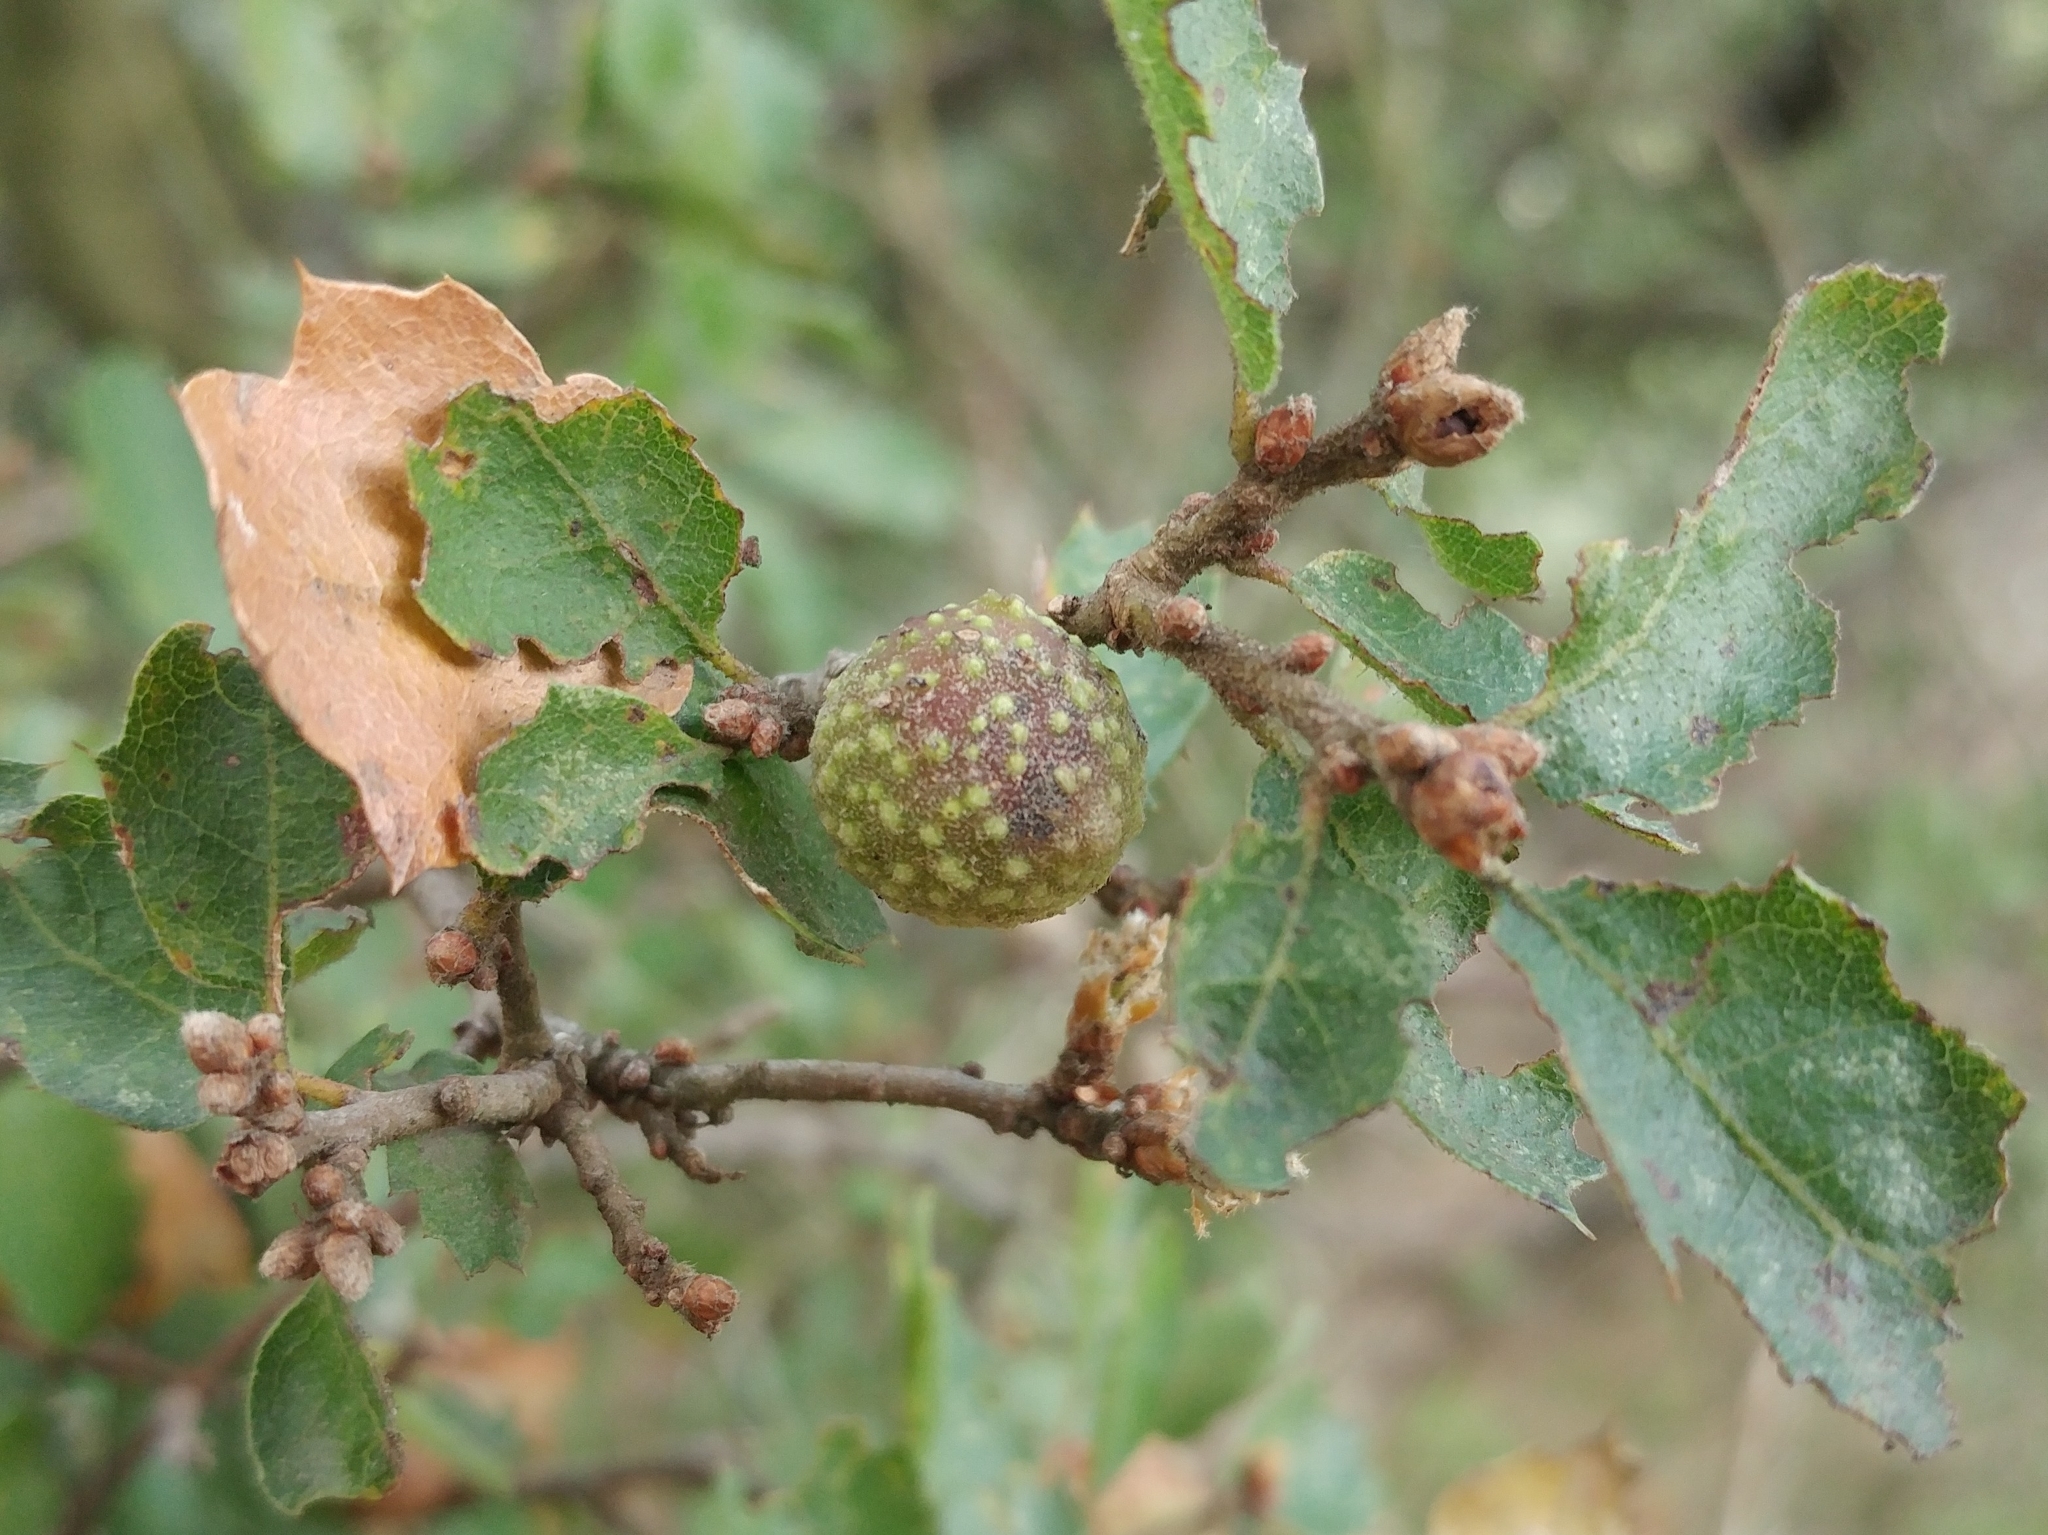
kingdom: Animalia
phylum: Arthropoda
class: Insecta
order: Hymenoptera
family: Cynipidae
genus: Burnettweldia
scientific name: Burnettweldia
